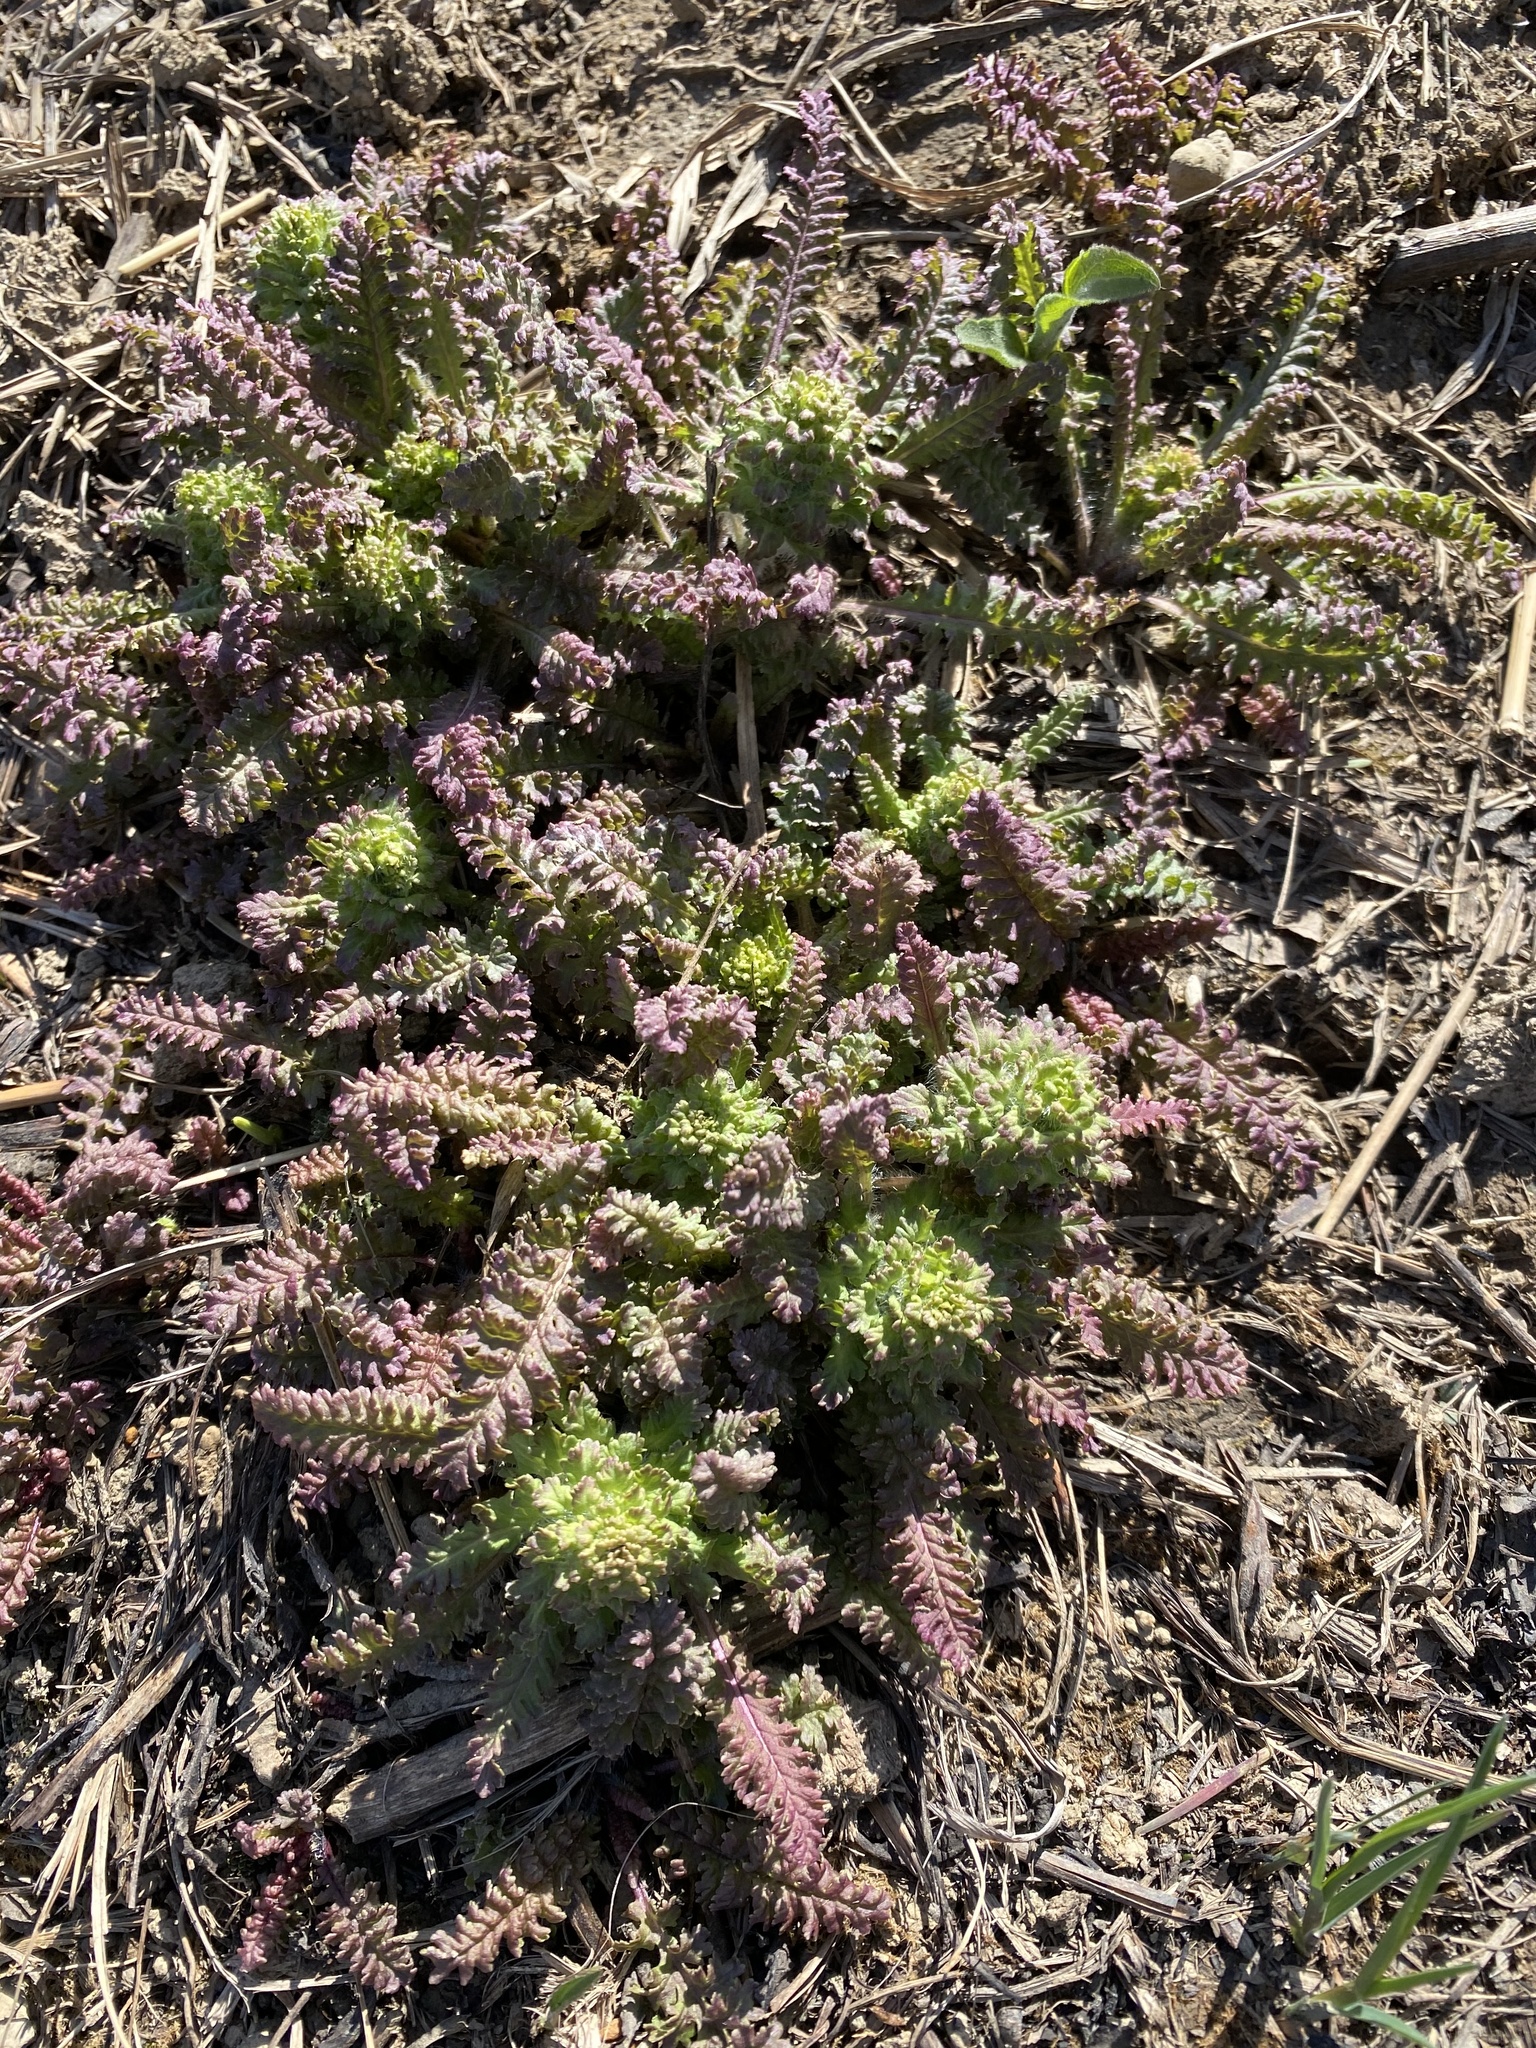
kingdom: Plantae
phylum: Tracheophyta
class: Magnoliopsida
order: Lamiales
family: Orobanchaceae
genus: Pedicularis
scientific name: Pedicularis canadensis
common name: Early lousewort
